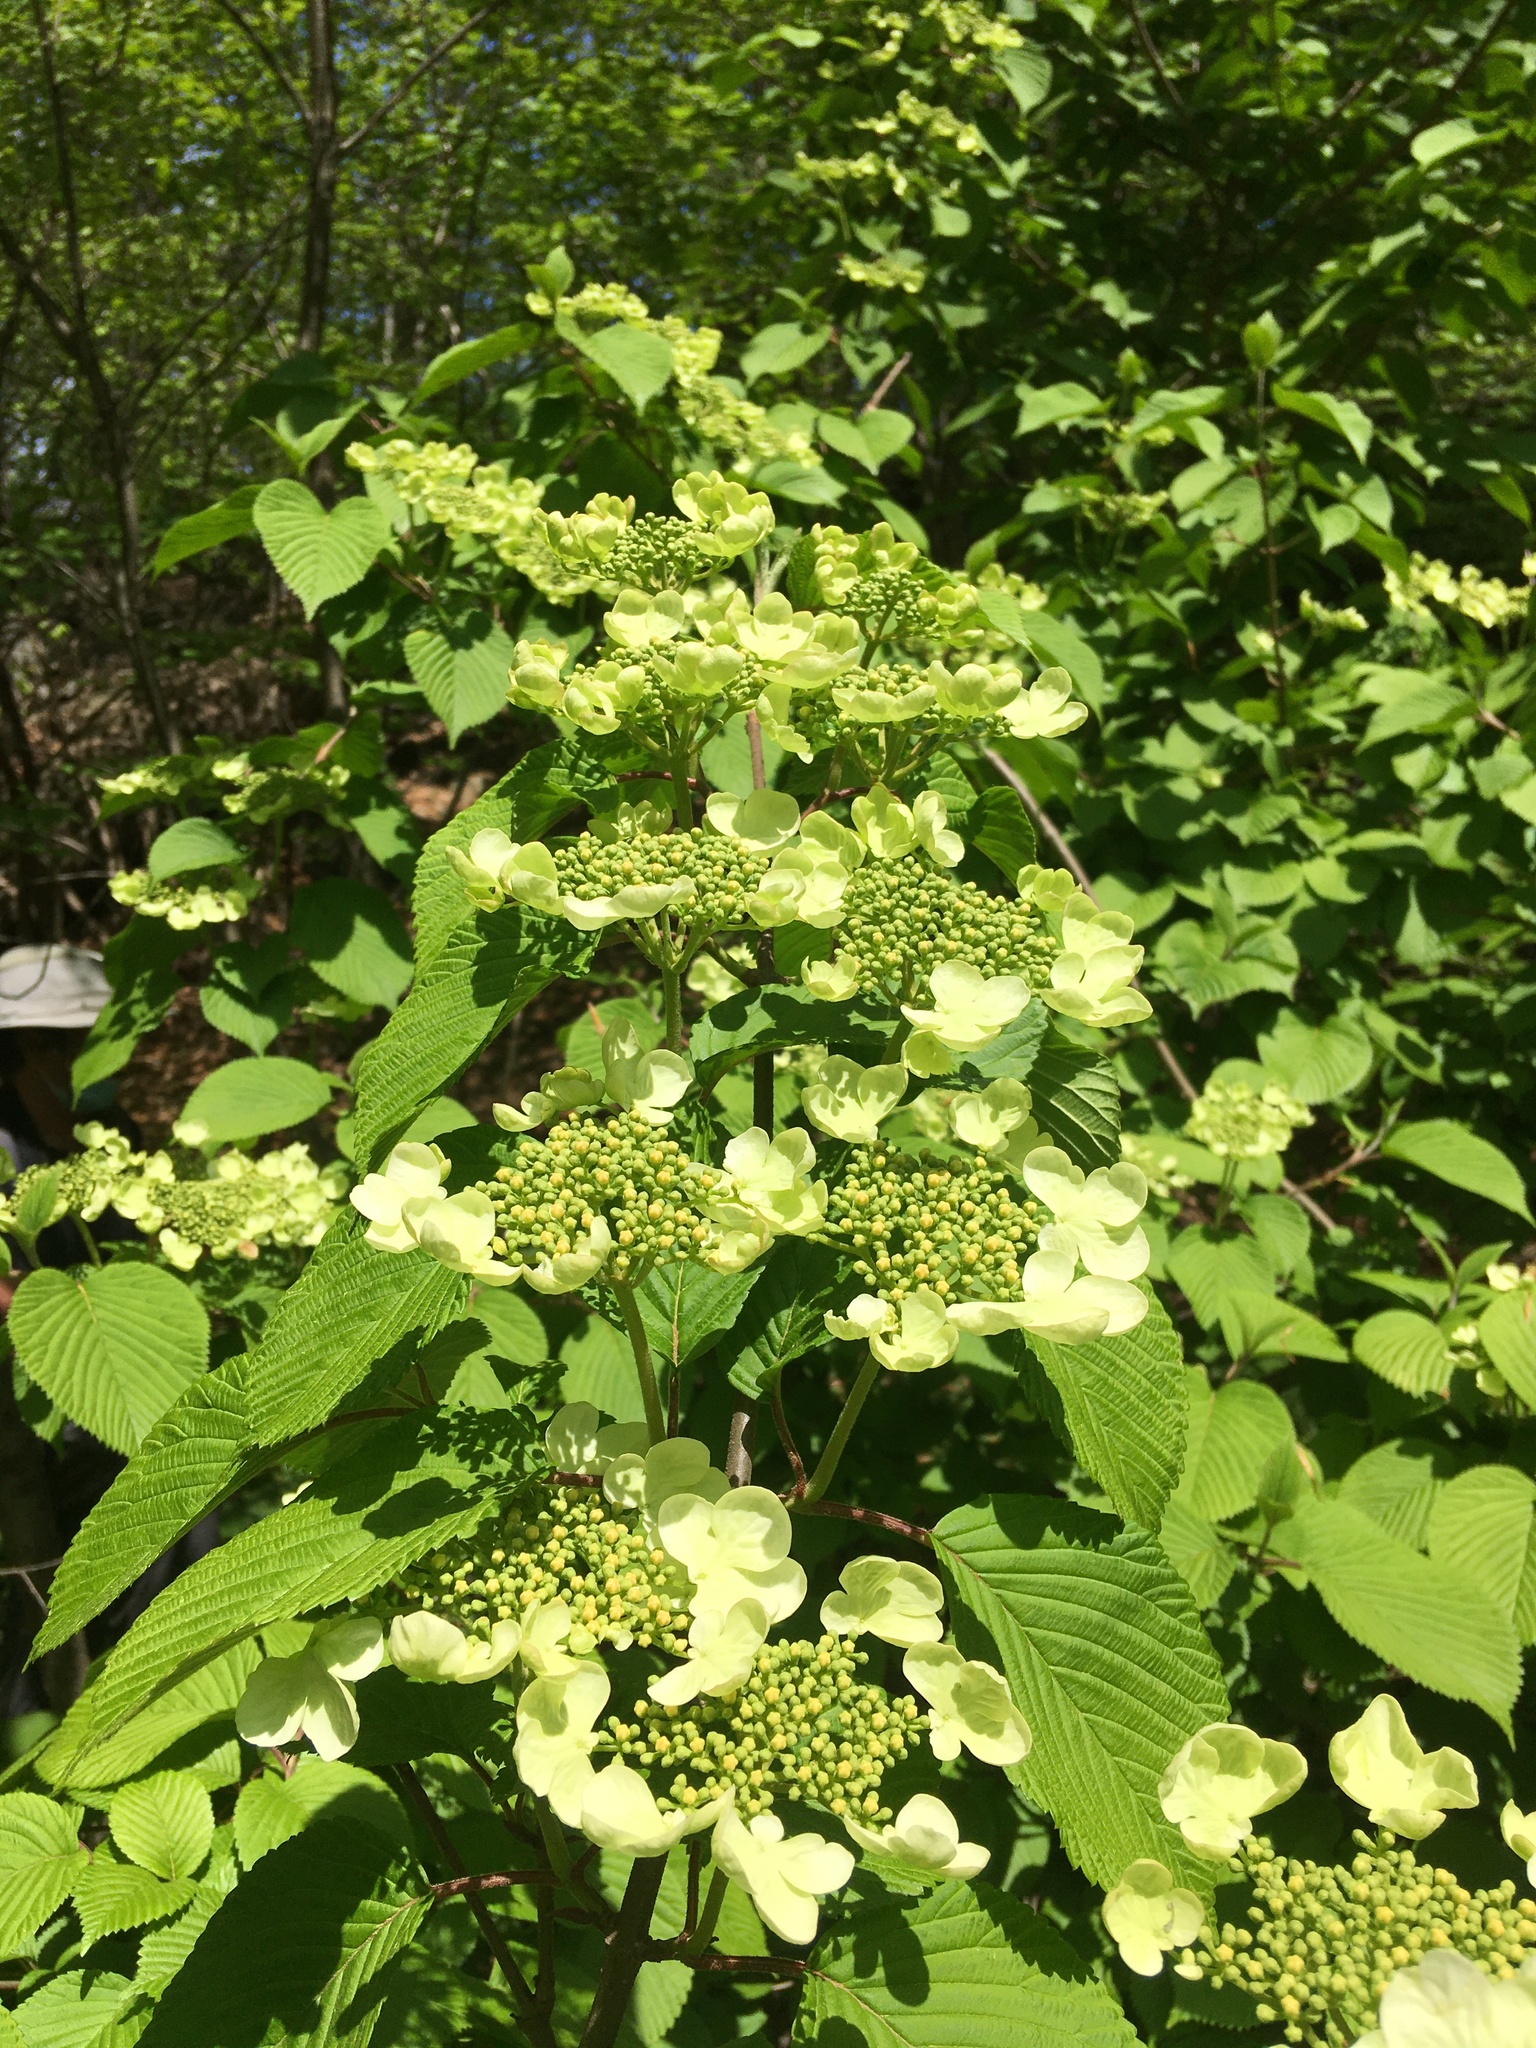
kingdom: Plantae
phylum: Tracheophyta
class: Magnoliopsida
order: Dipsacales
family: Viburnaceae
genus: Viburnum
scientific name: Viburnum plicatum
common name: Japanese snowball
